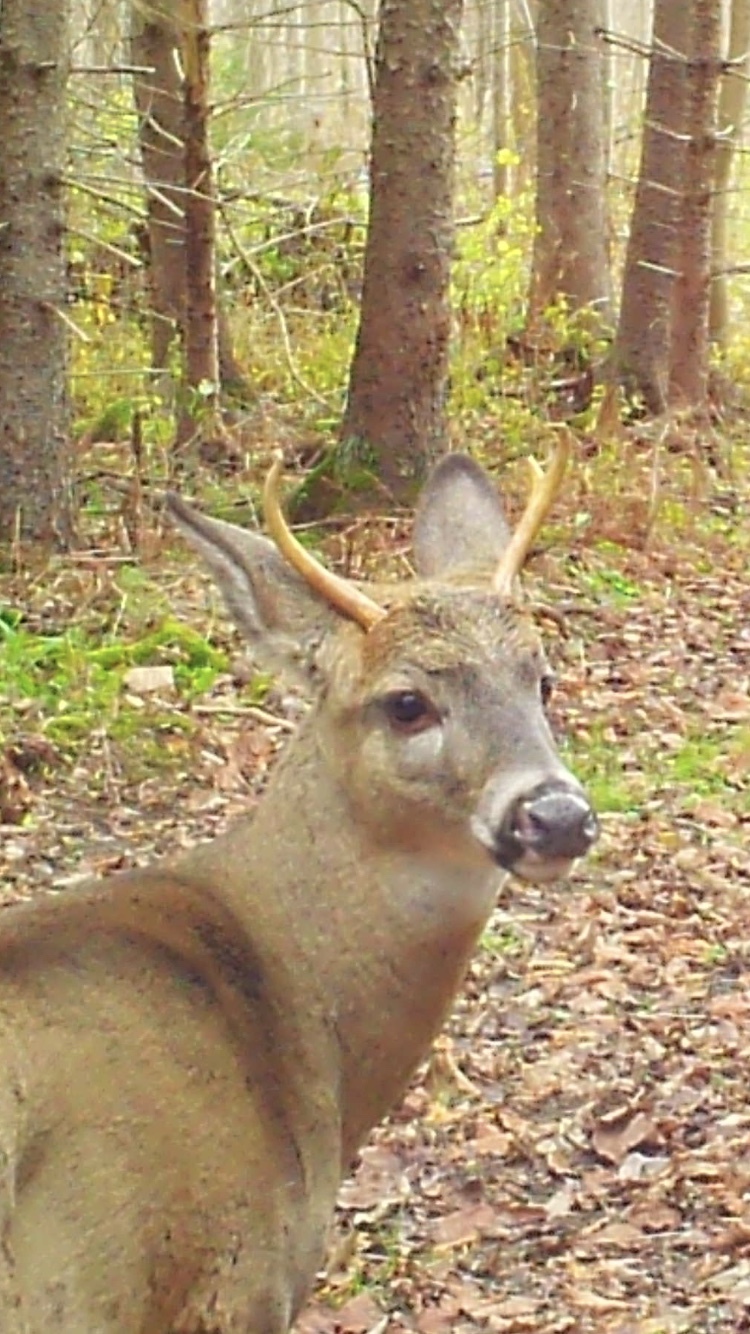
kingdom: Animalia
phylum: Chordata
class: Mammalia
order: Artiodactyla
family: Cervidae
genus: Odocoileus
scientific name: Odocoileus virginianus
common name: White-tailed deer
